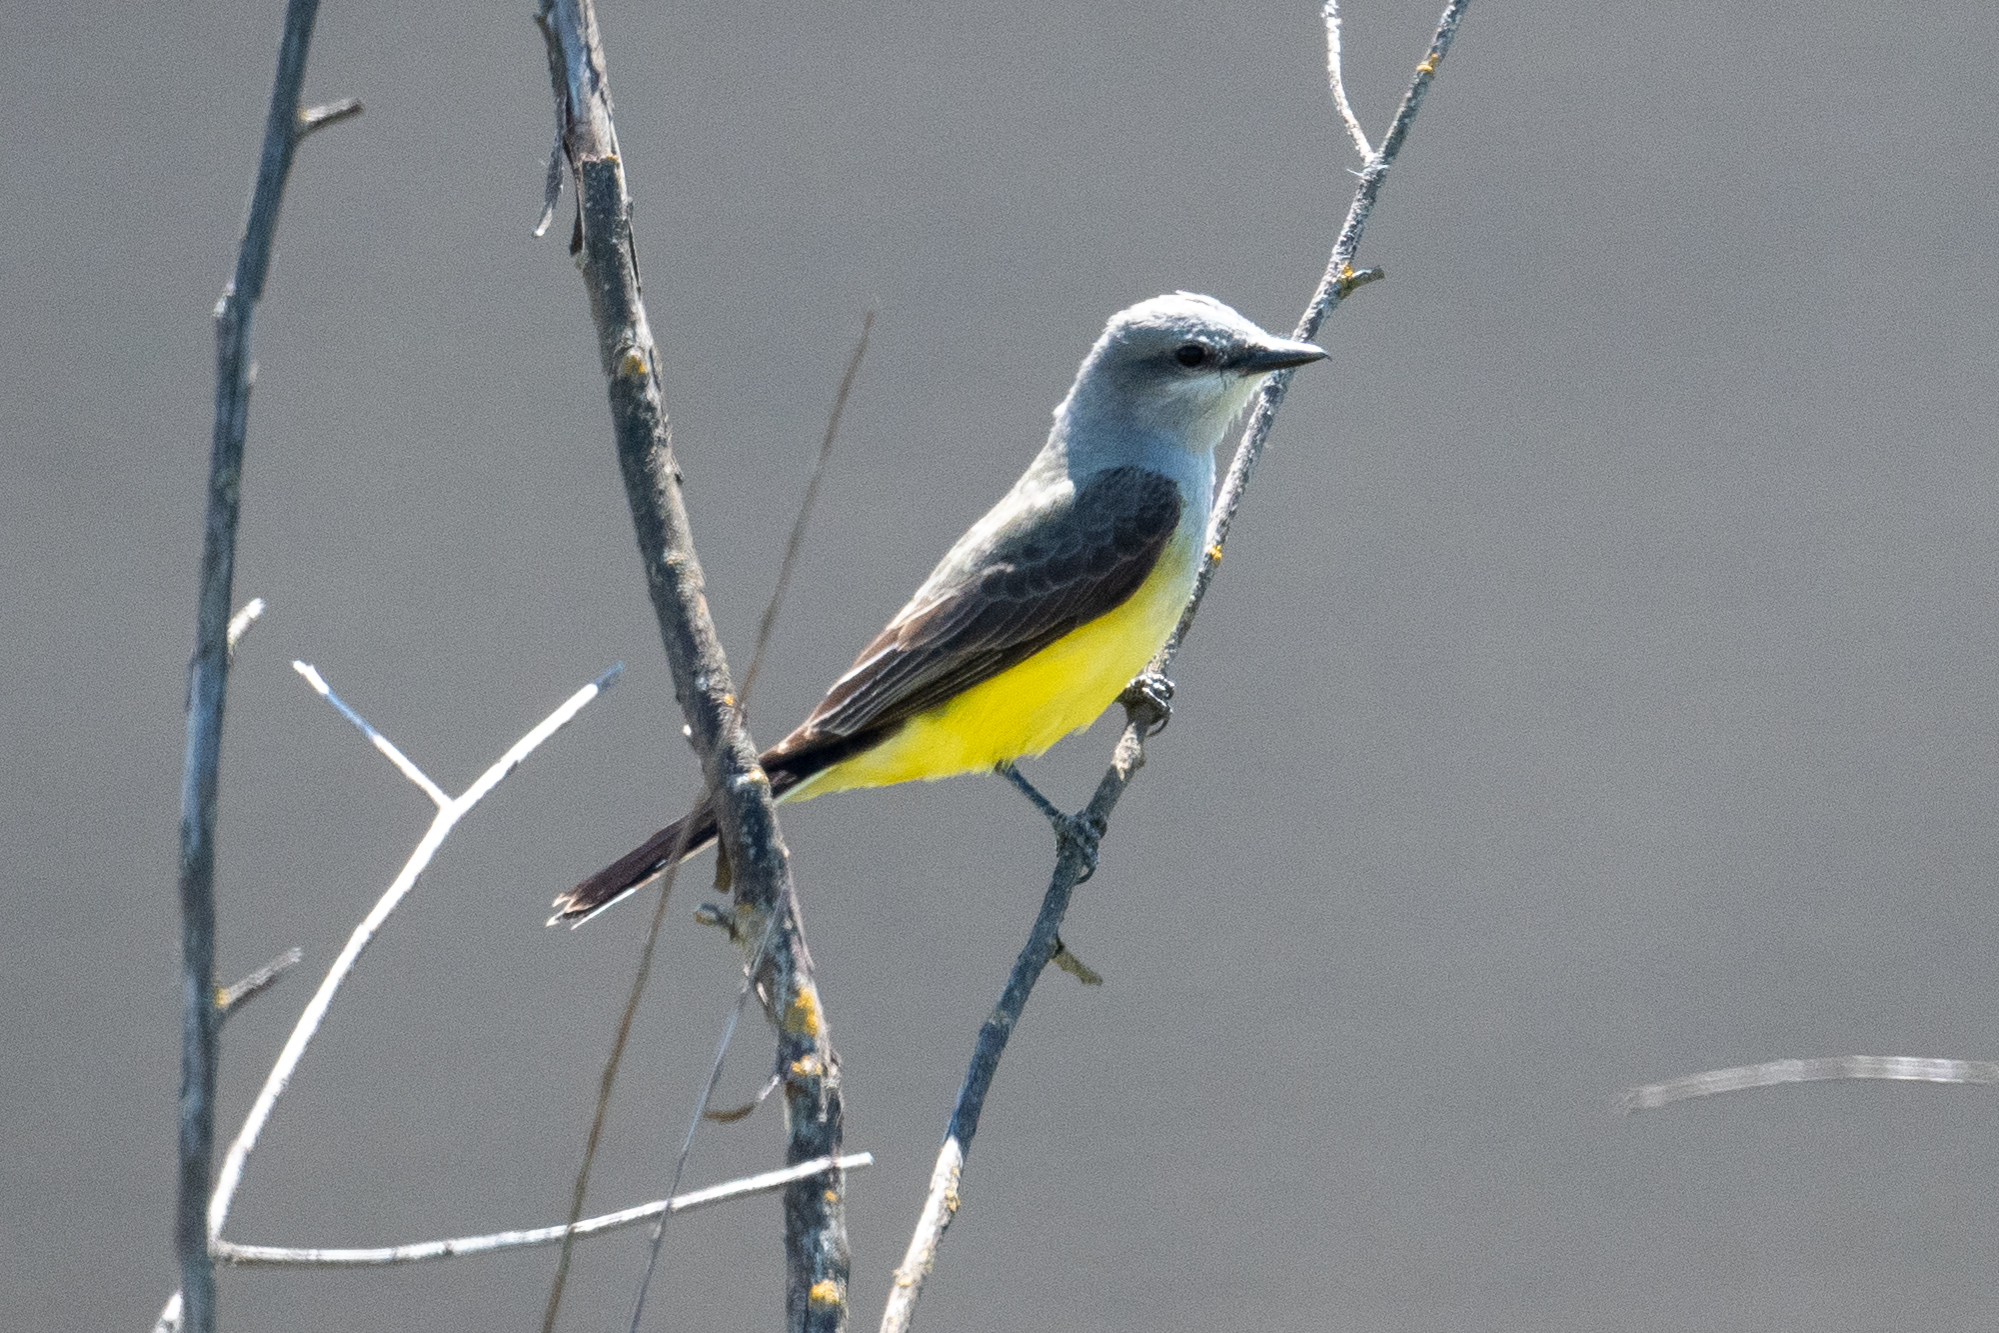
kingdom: Animalia
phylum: Chordata
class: Aves
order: Passeriformes
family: Tyrannidae
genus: Tyrannus
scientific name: Tyrannus verticalis
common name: Western kingbird
